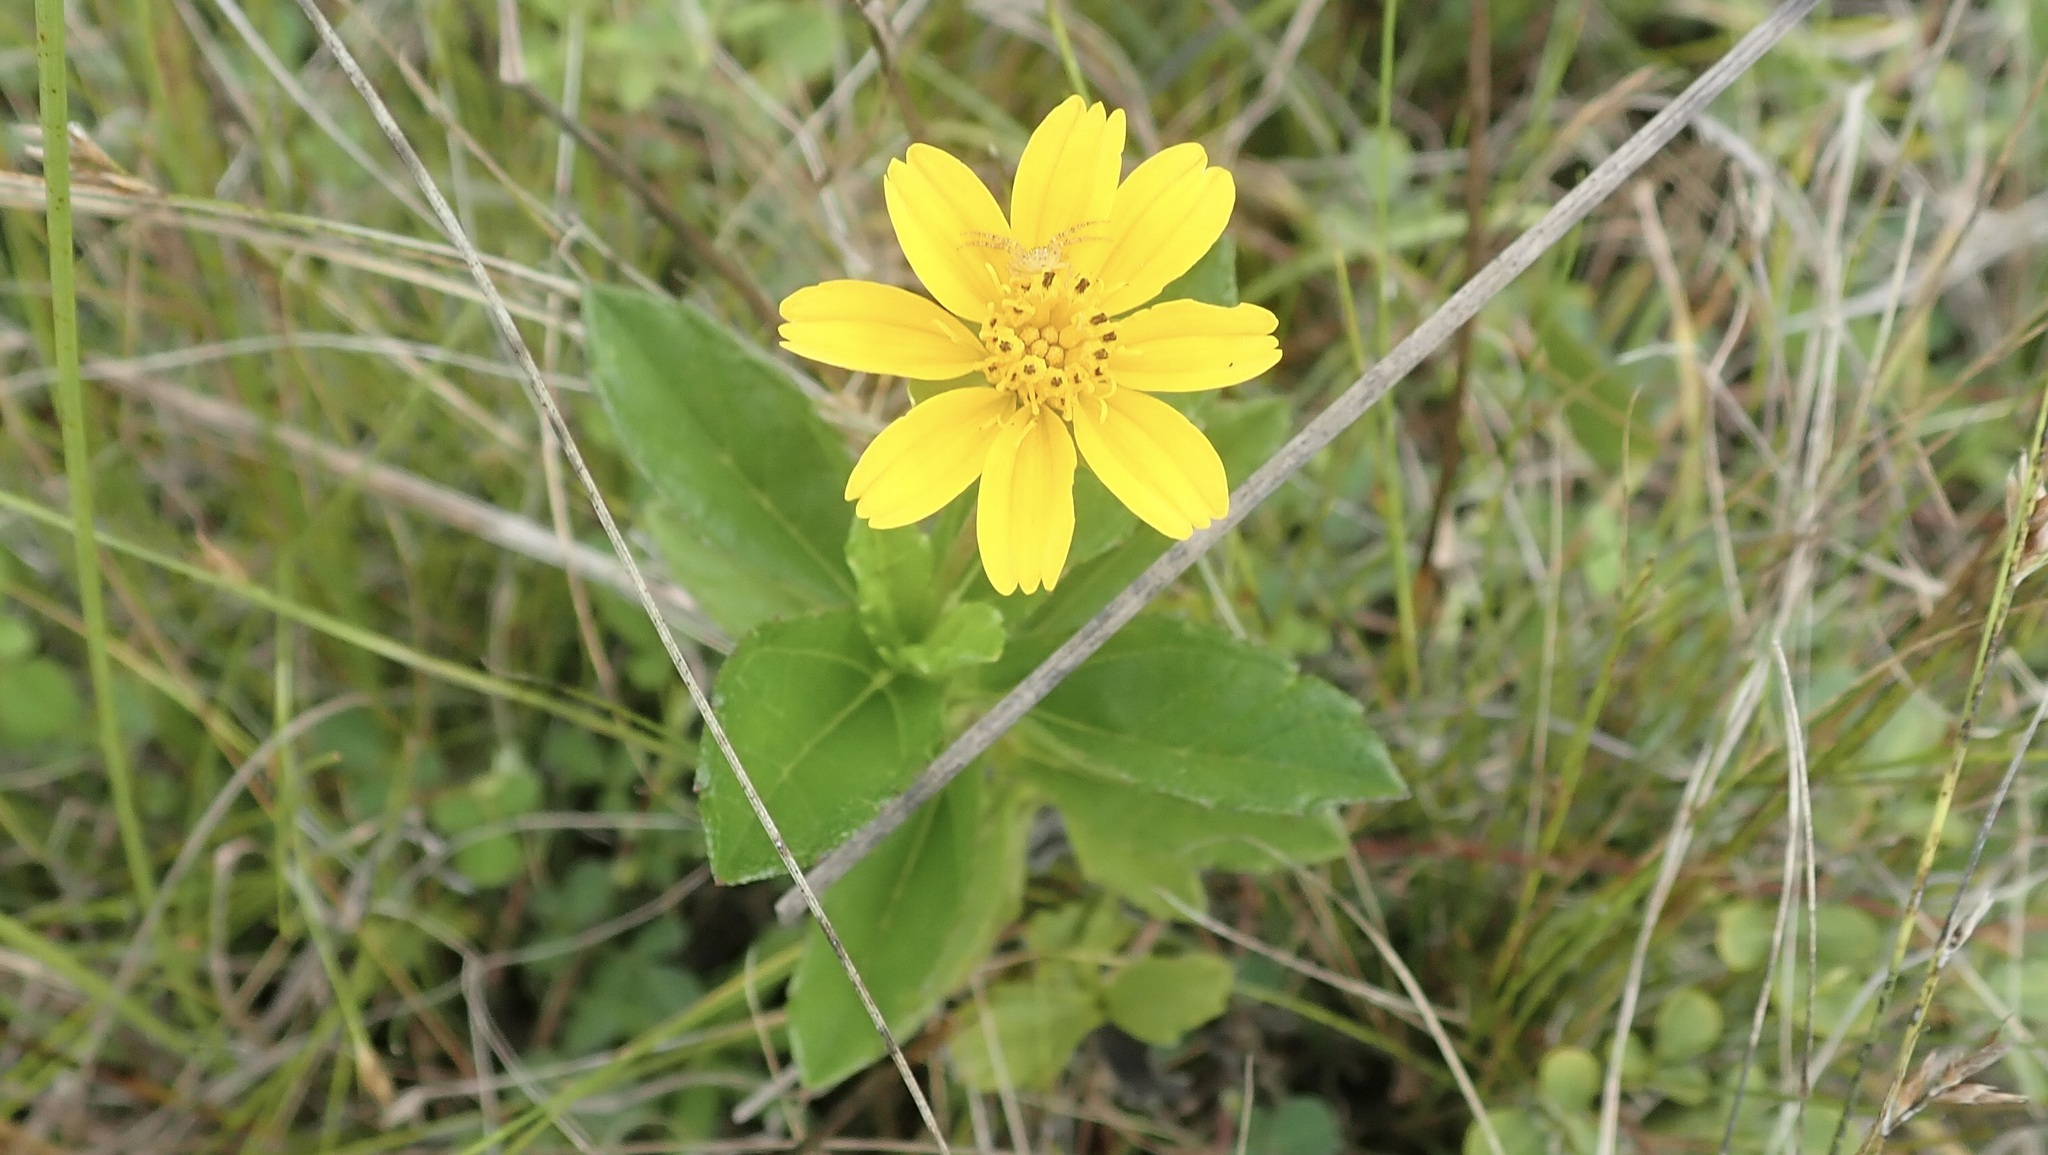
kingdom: Plantae
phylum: Tracheophyta
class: Magnoliopsida
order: Asterales
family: Asteraceae
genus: Sphagneticola
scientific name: Sphagneticola trilobata
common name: Bay biscayne creeping-oxeye
